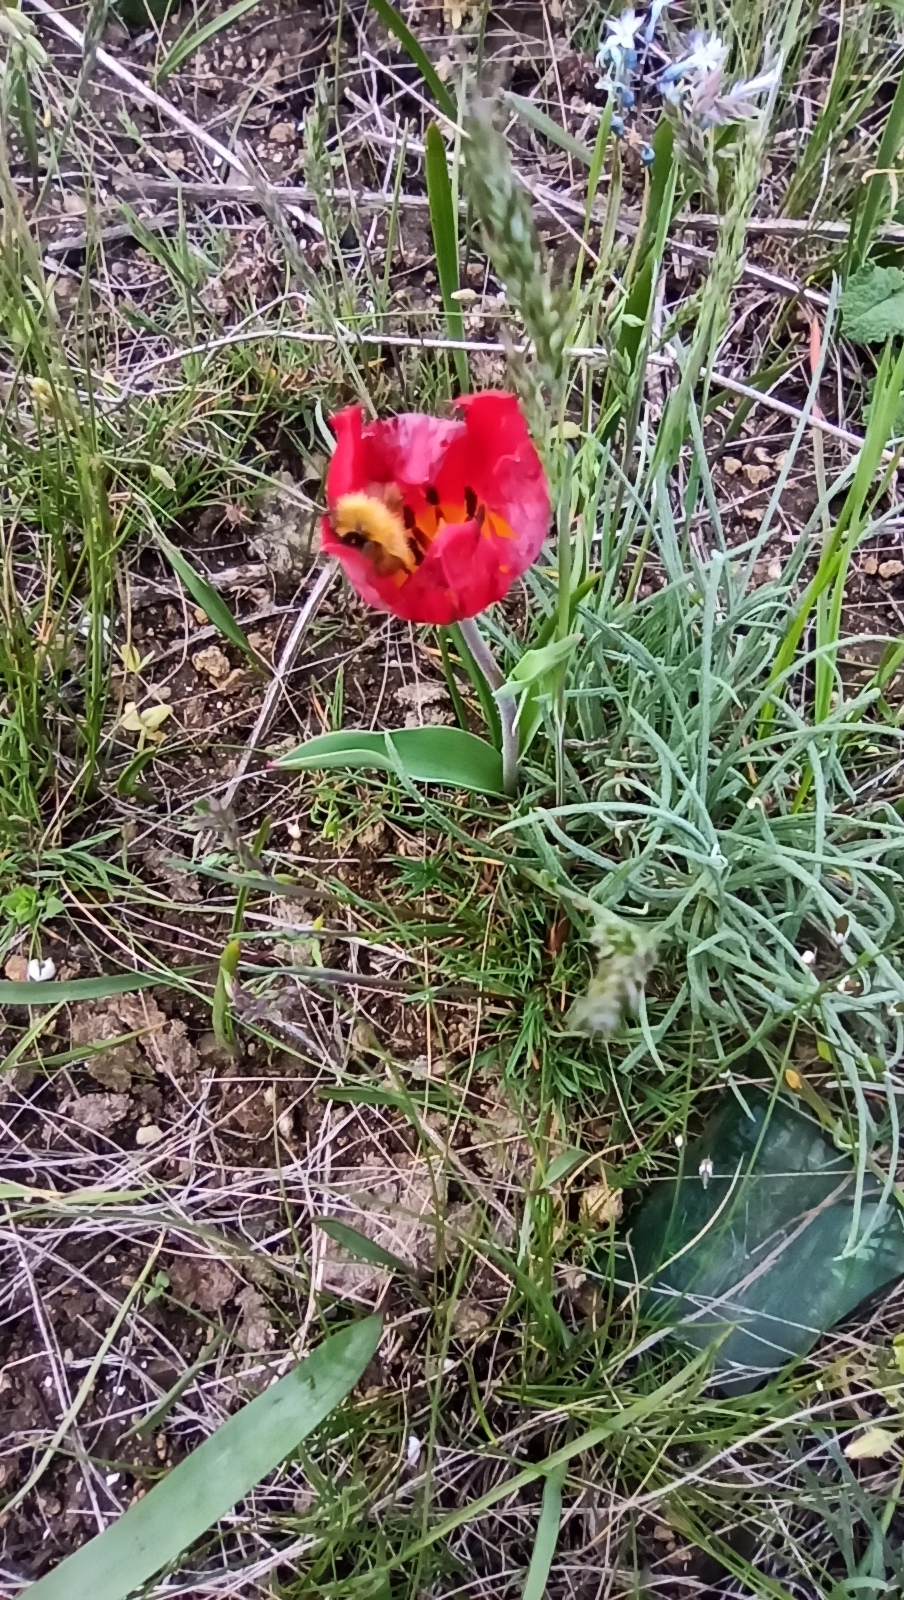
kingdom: Plantae
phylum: Tracheophyta
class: Liliopsida
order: Liliales
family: Liliaceae
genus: Tulipa
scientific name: Tulipa suaveolens
